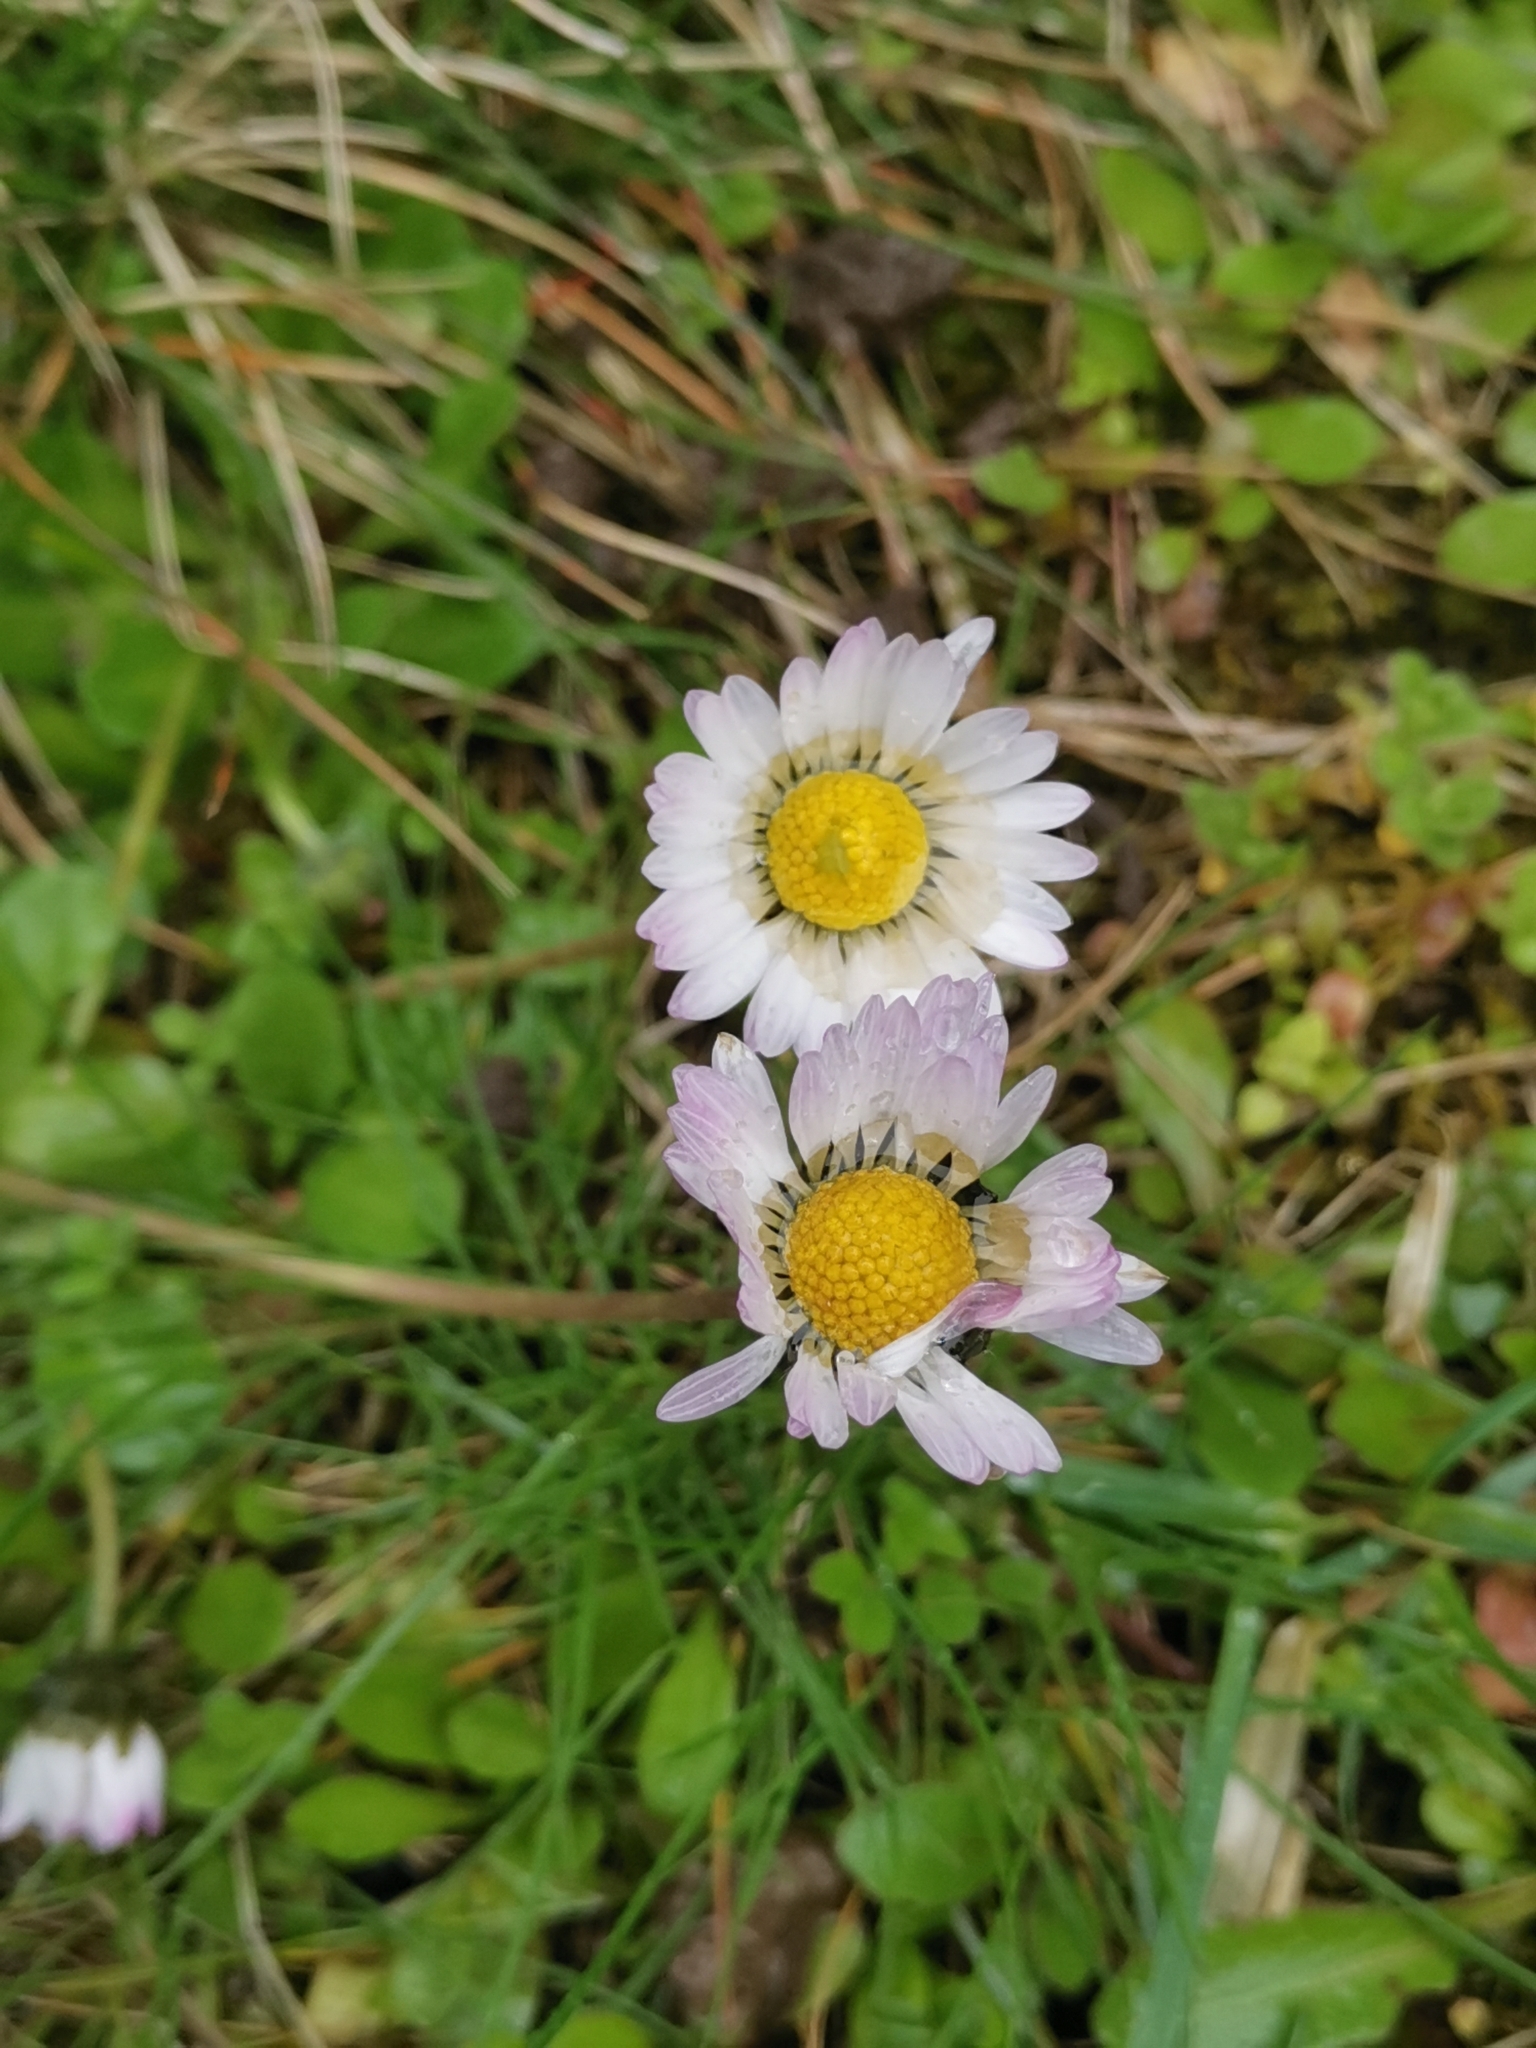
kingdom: Plantae
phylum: Tracheophyta
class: Magnoliopsida
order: Asterales
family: Asteraceae
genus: Bellis
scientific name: Bellis perennis
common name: Lawndaisy
